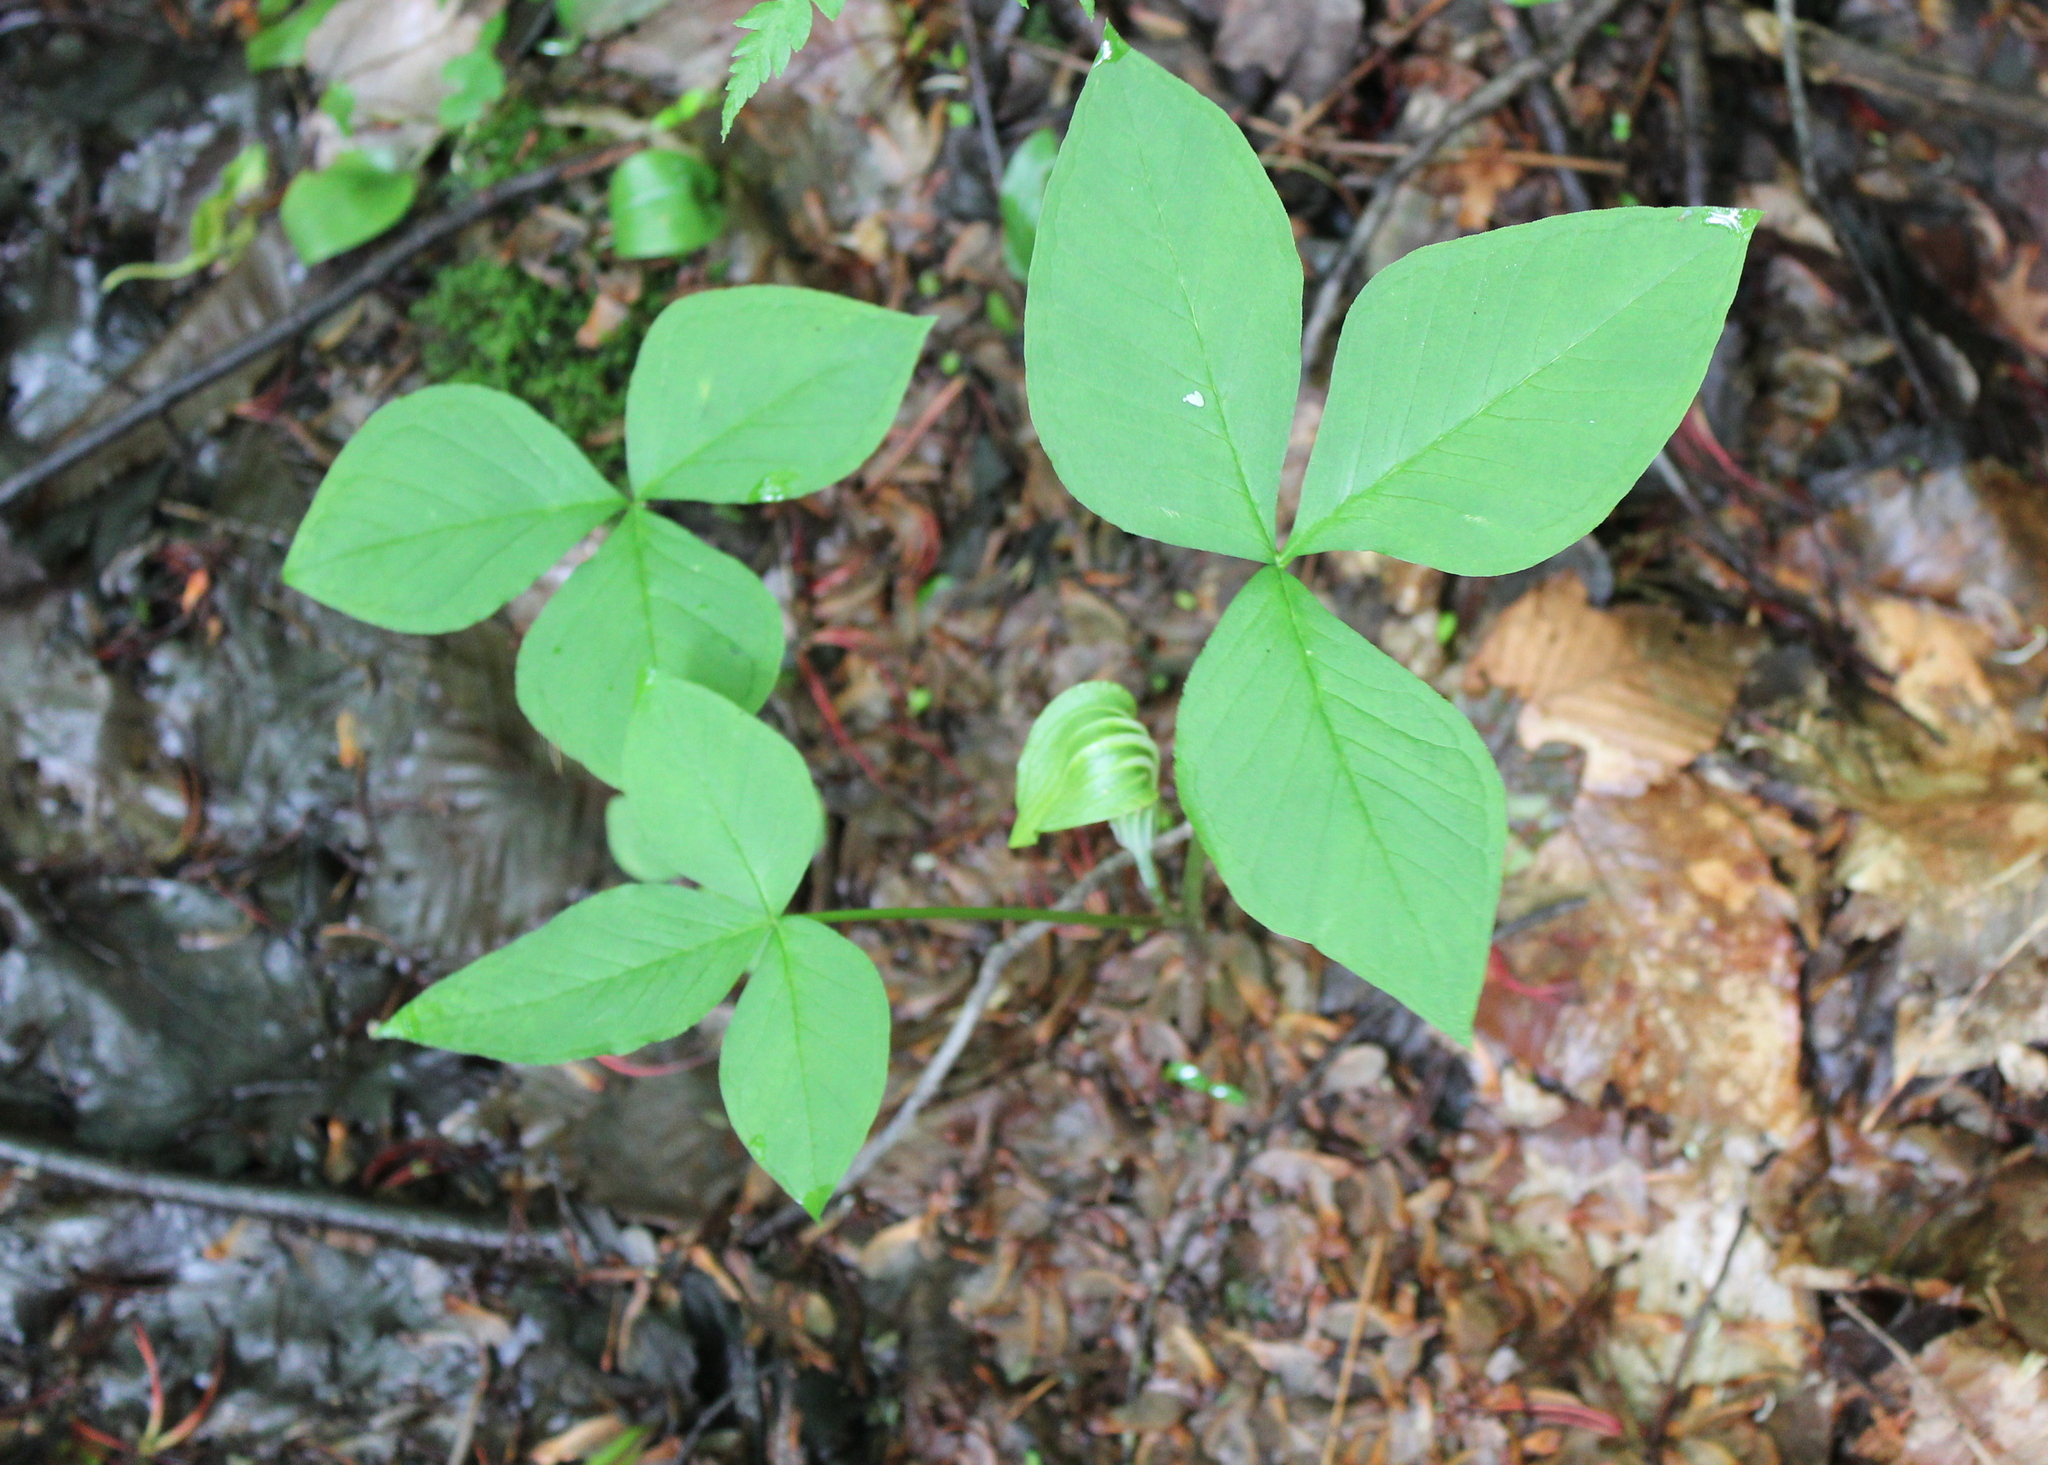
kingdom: Plantae
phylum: Tracheophyta
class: Liliopsida
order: Alismatales
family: Araceae
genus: Arisaema
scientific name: Arisaema stewardsonii
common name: Swamp jack-in-the-pulpit
